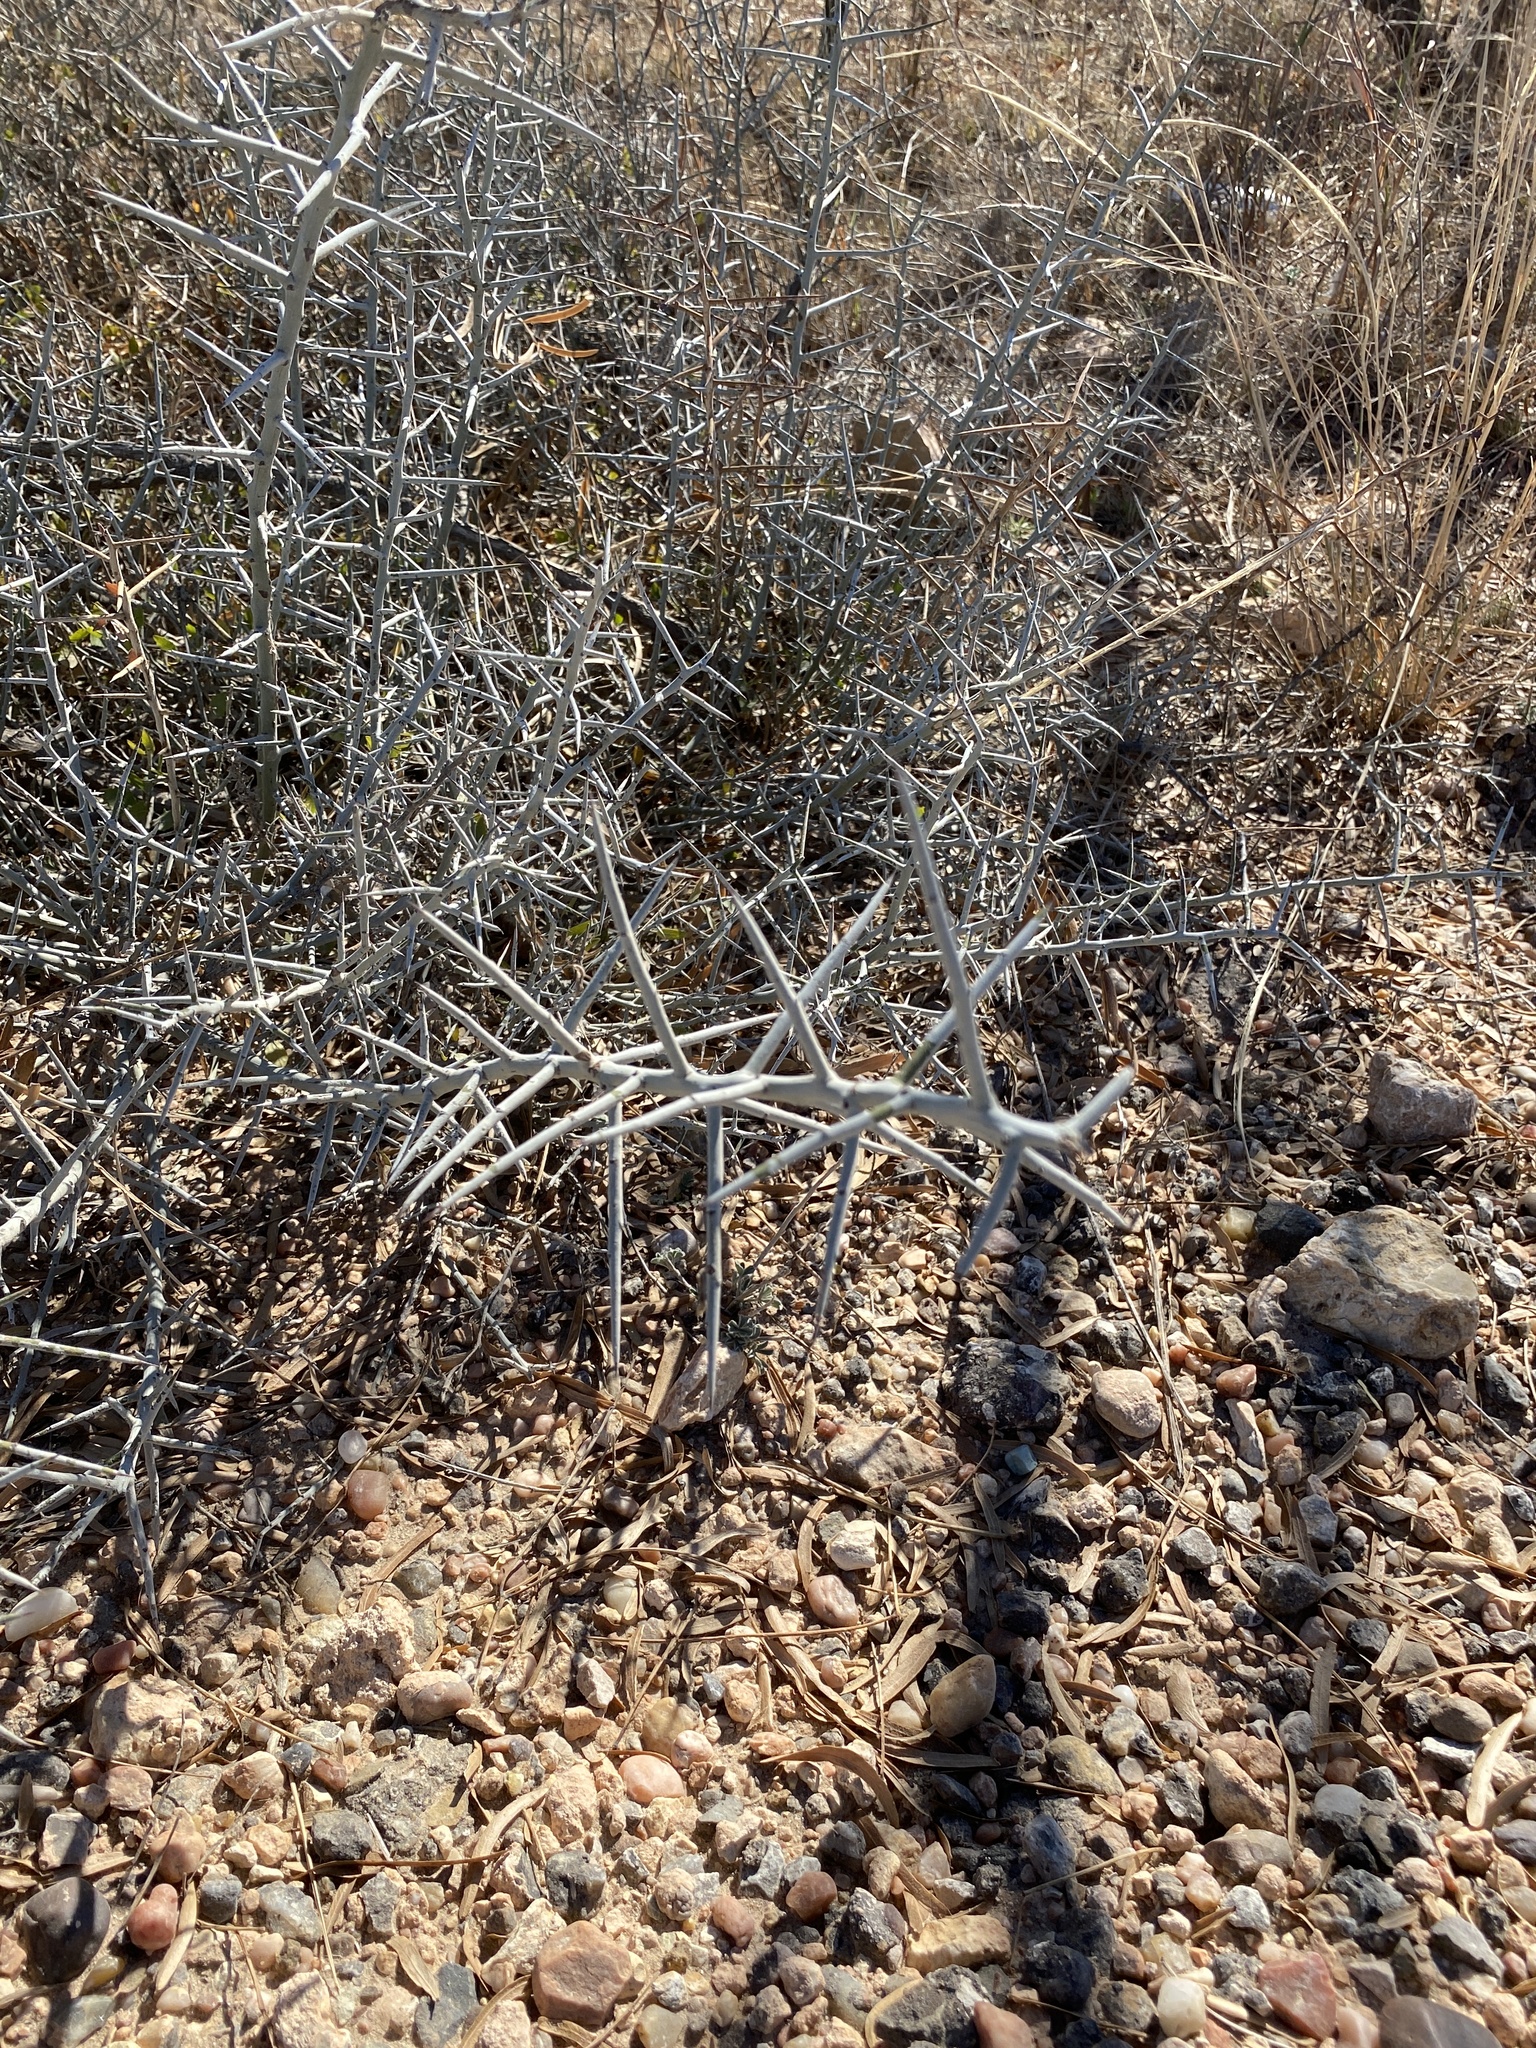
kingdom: Plantae
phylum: Tracheophyta
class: Magnoliopsida
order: Rosales
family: Rhamnaceae
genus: Sarcomphalus
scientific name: Sarcomphalus obtusifolius
